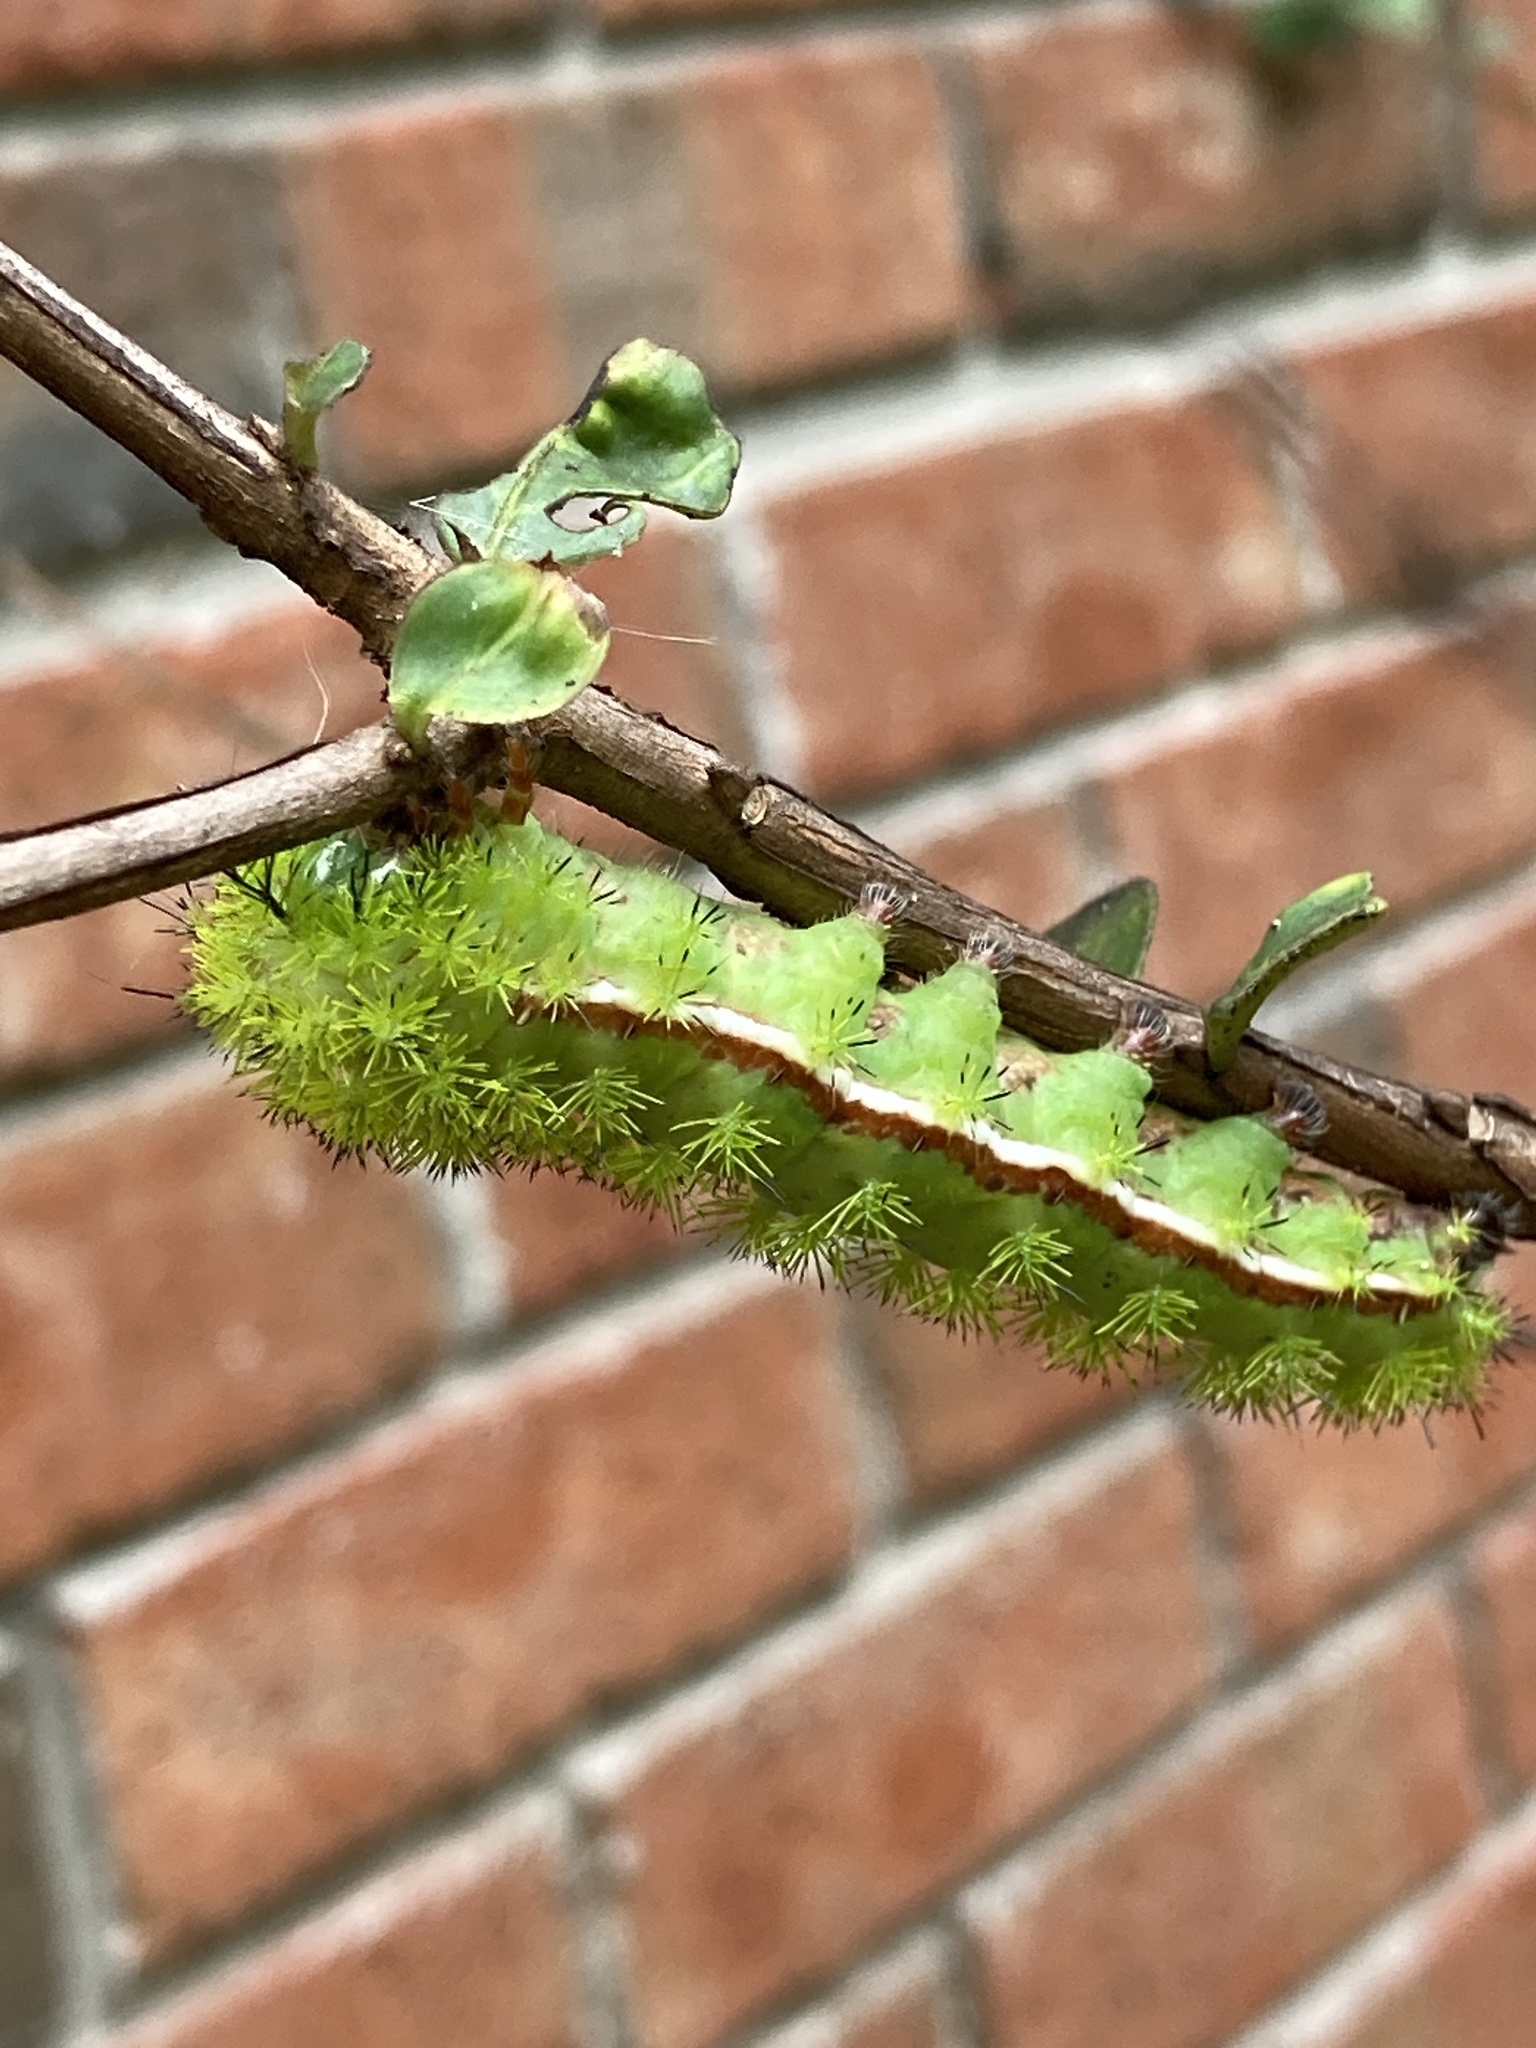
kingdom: Animalia
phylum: Arthropoda
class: Insecta
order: Lepidoptera
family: Saturniidae
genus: Automeris
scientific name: Automeris io
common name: Io moth
